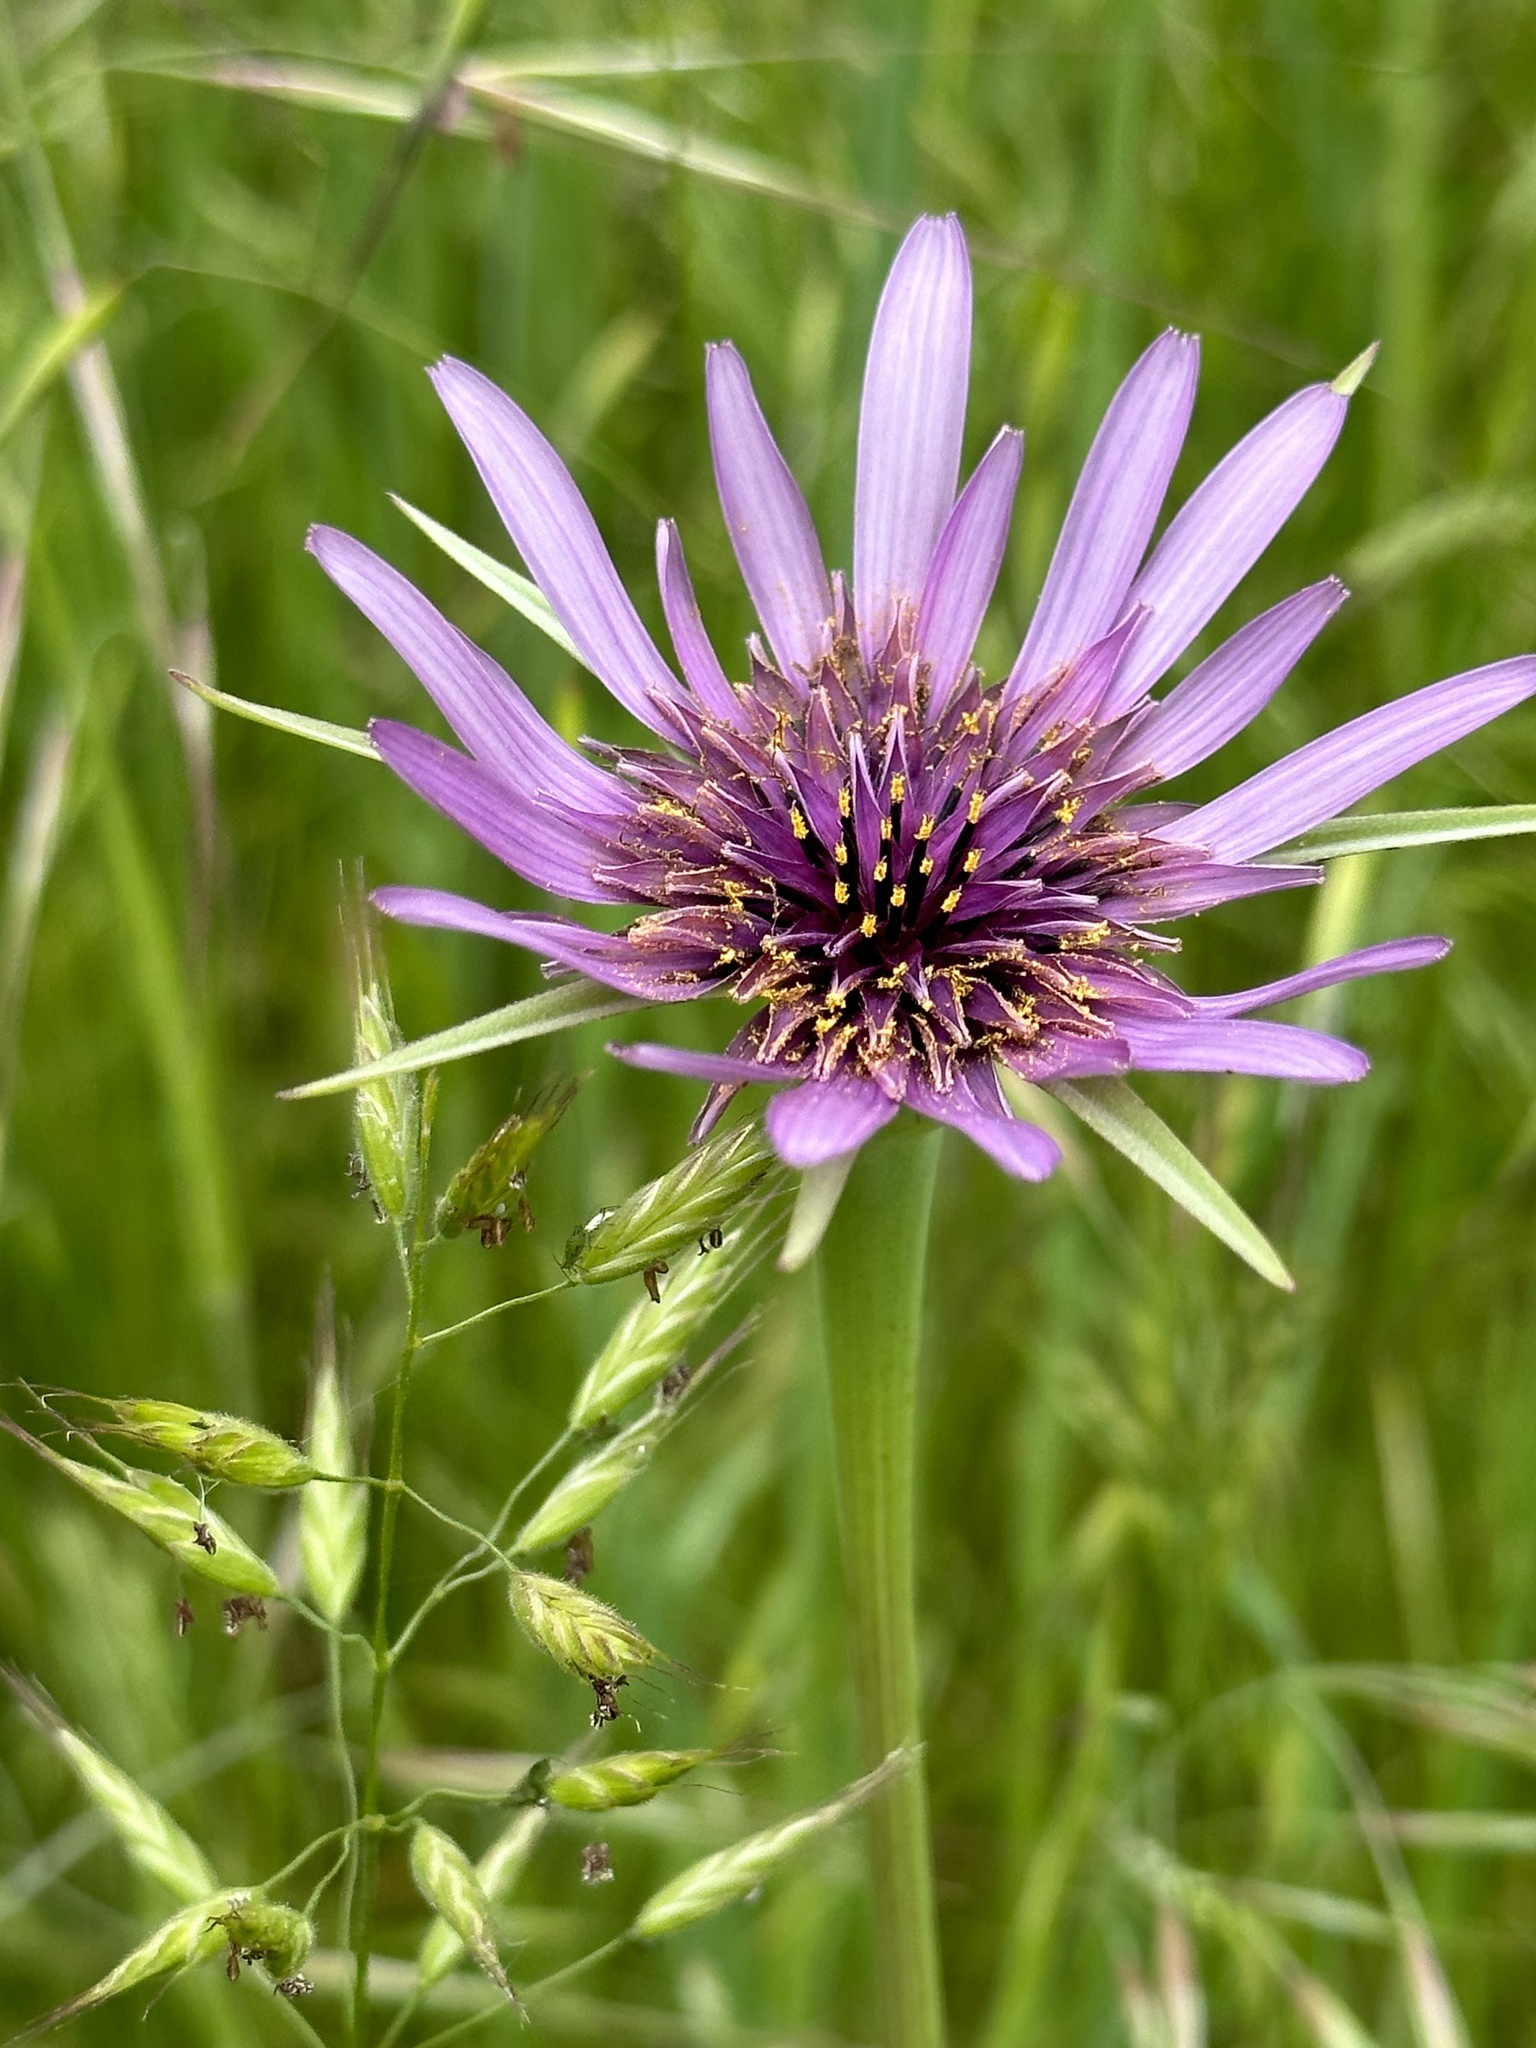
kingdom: Plantae
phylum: Tracheophyta
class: Magnoliopsida
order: Asterales
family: Asteraceae
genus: Tragopogon
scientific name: Tragopogon porrifolius
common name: Salsify
